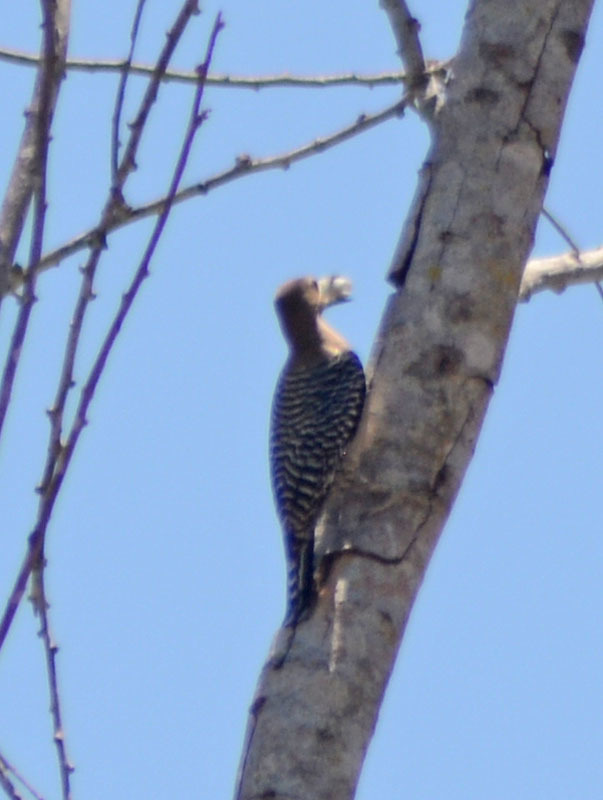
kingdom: Animalia
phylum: Chordata
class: Aves
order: Piciformes
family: Picidae
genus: Melanerpes
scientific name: Melanerpes uropygialis
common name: Gila woodpecker
